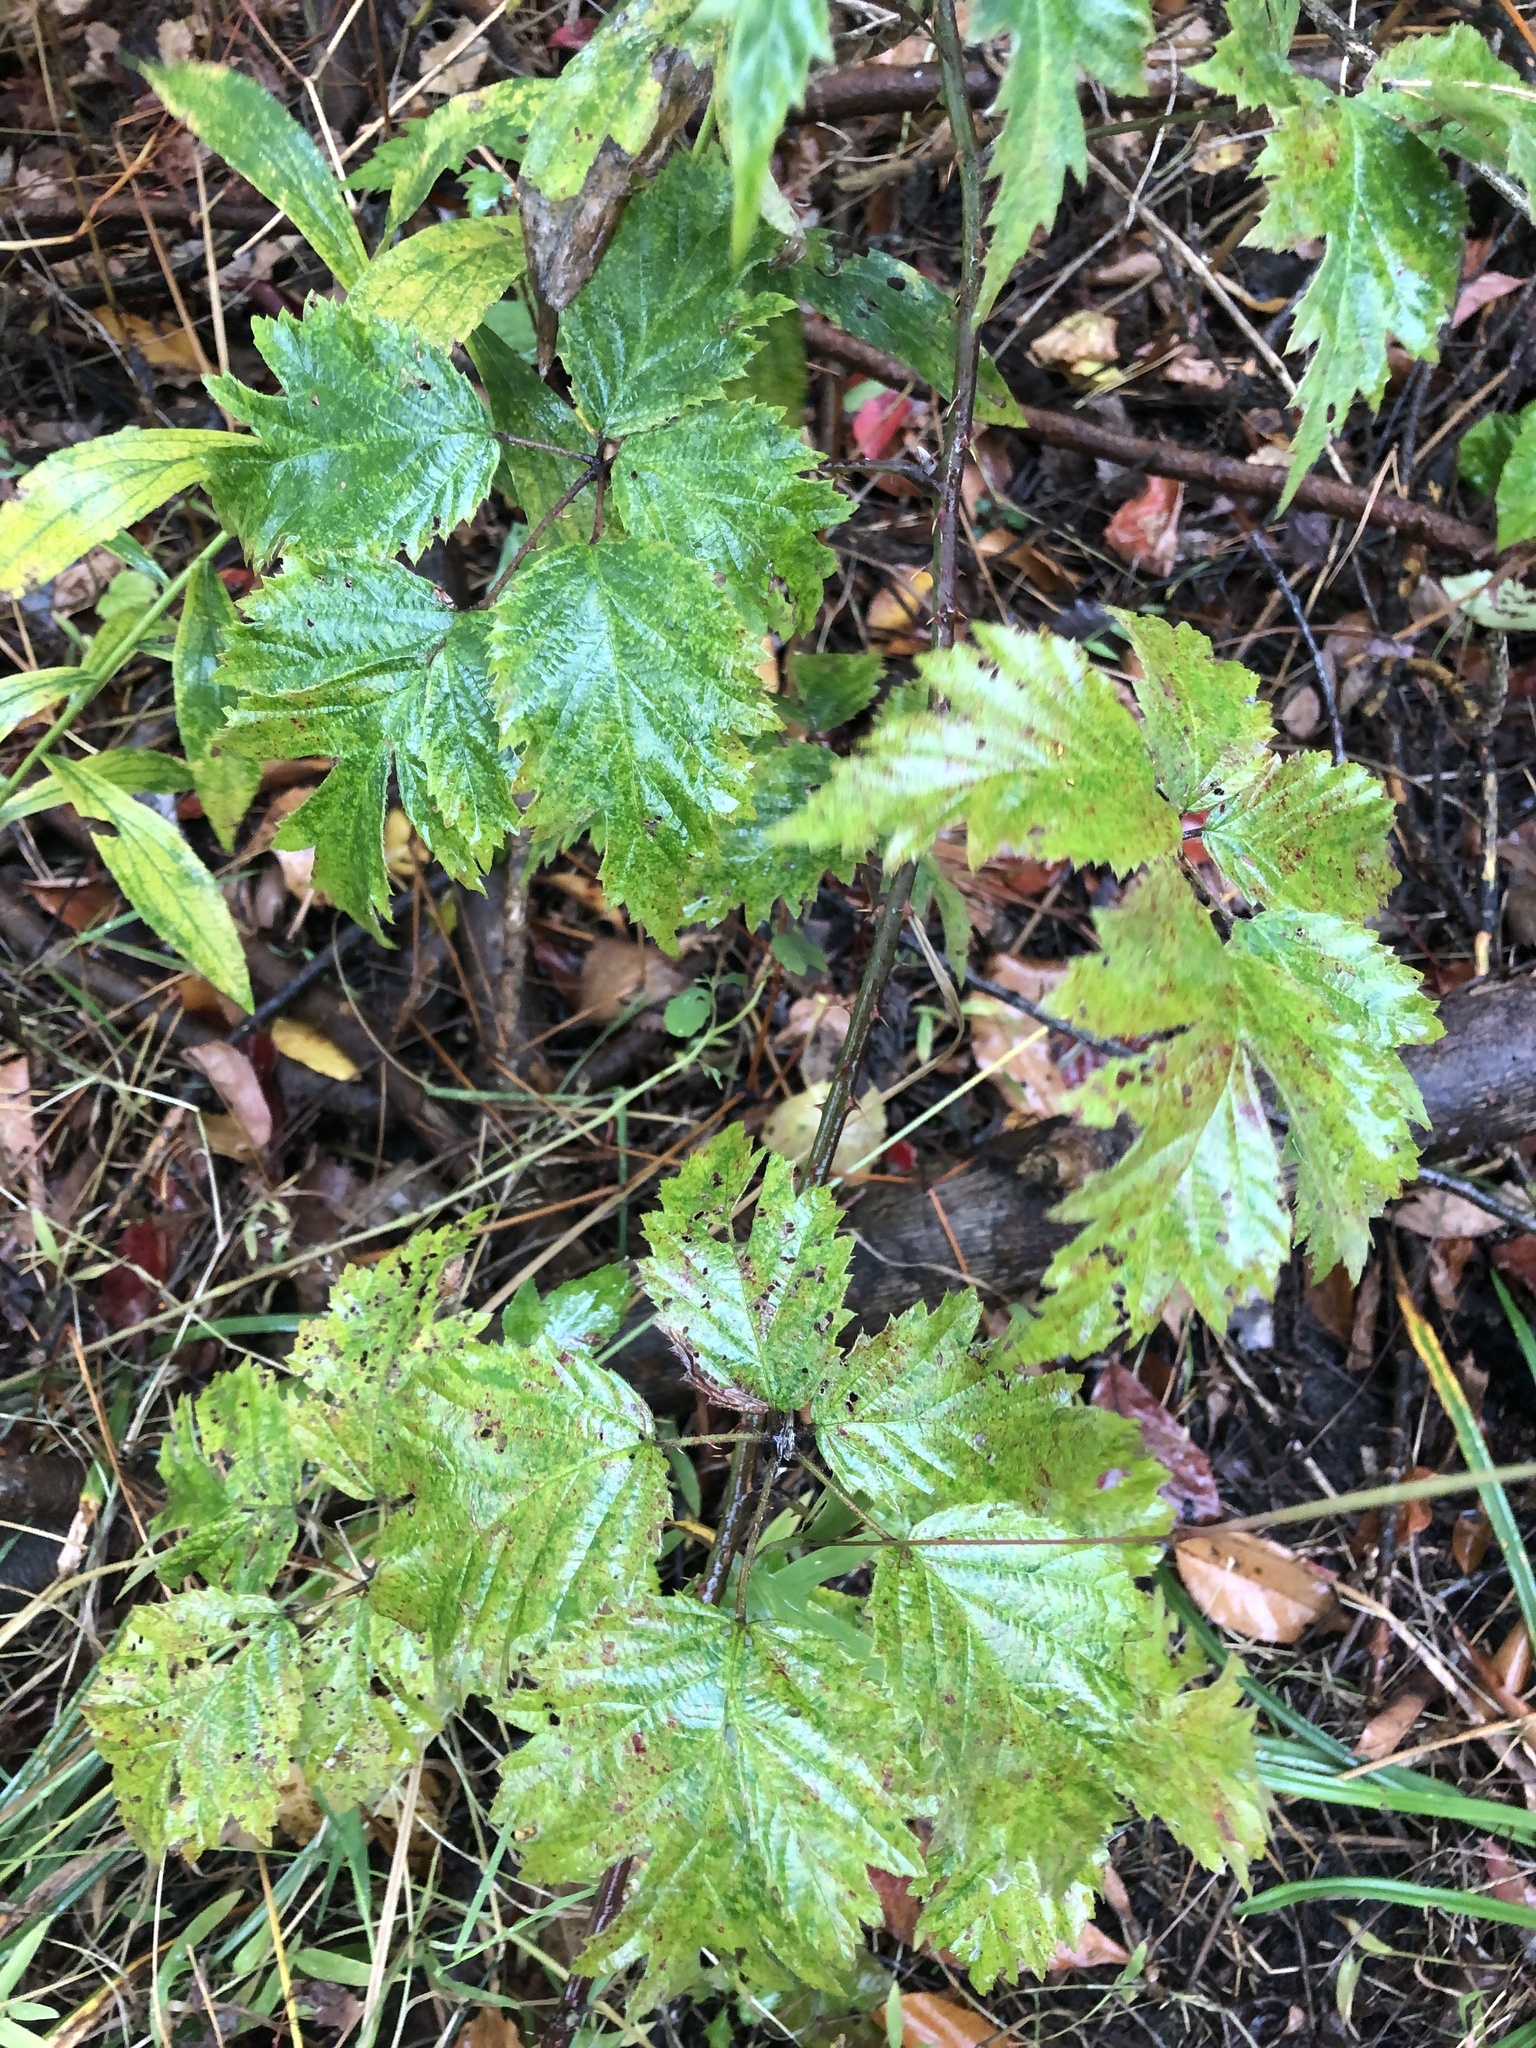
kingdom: Plantae
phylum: Tracheophyta
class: Magnoliopsida
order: Rosales
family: Rosaceae
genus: Rubus
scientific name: Rubus laciniatus
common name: Evergreen blackberry
